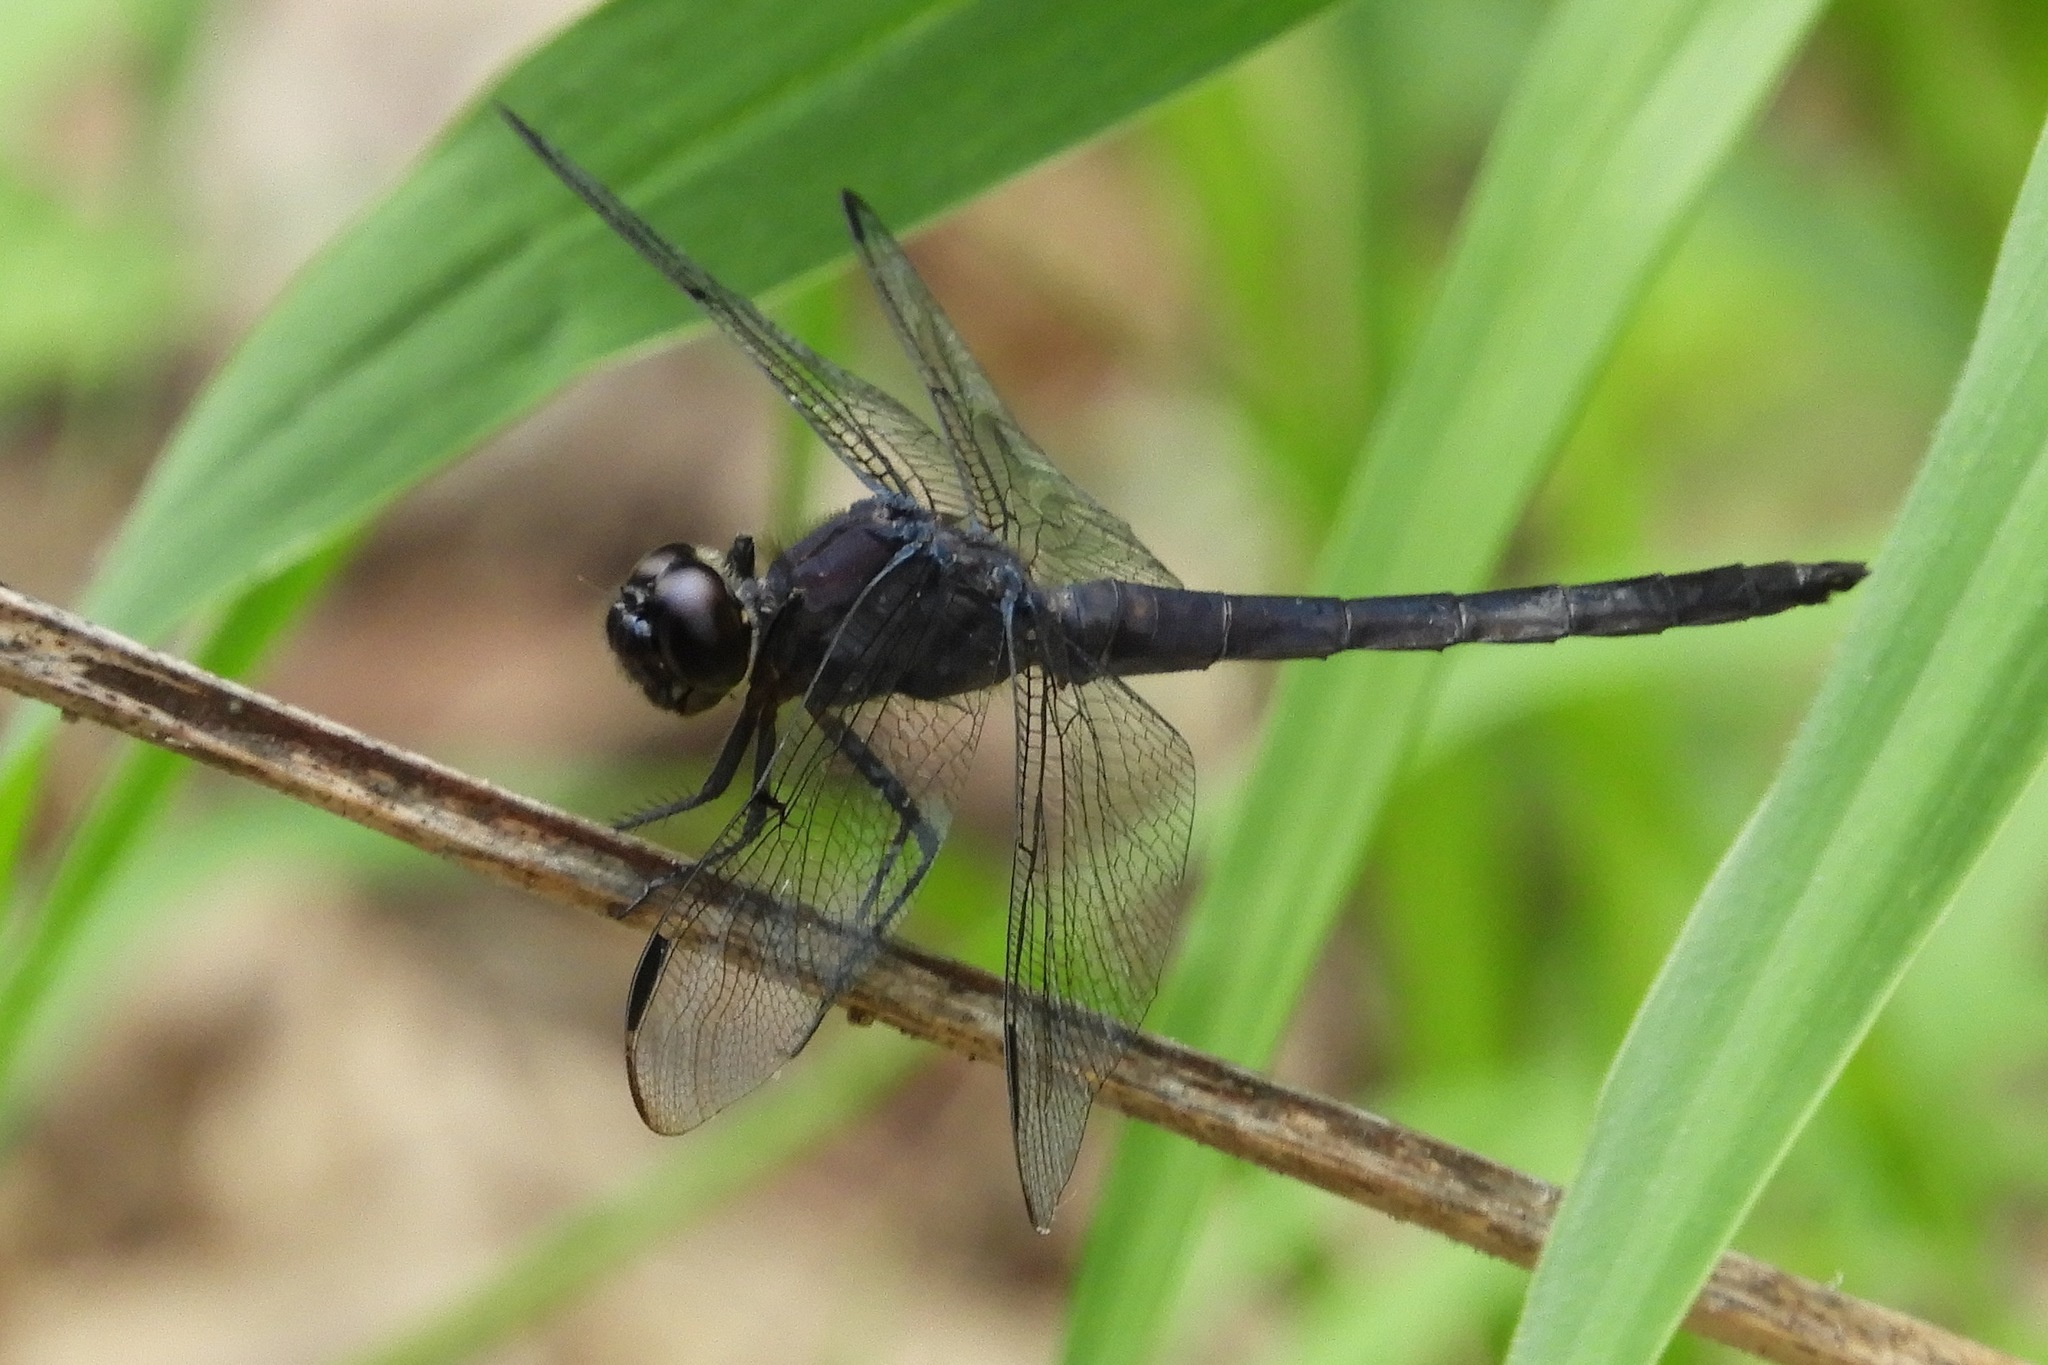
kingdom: Animalia
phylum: Arthropoda
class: Insecta
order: Odonata
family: Libellulidae
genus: Libellula
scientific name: Libellula incesta
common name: Slaty skimmer
